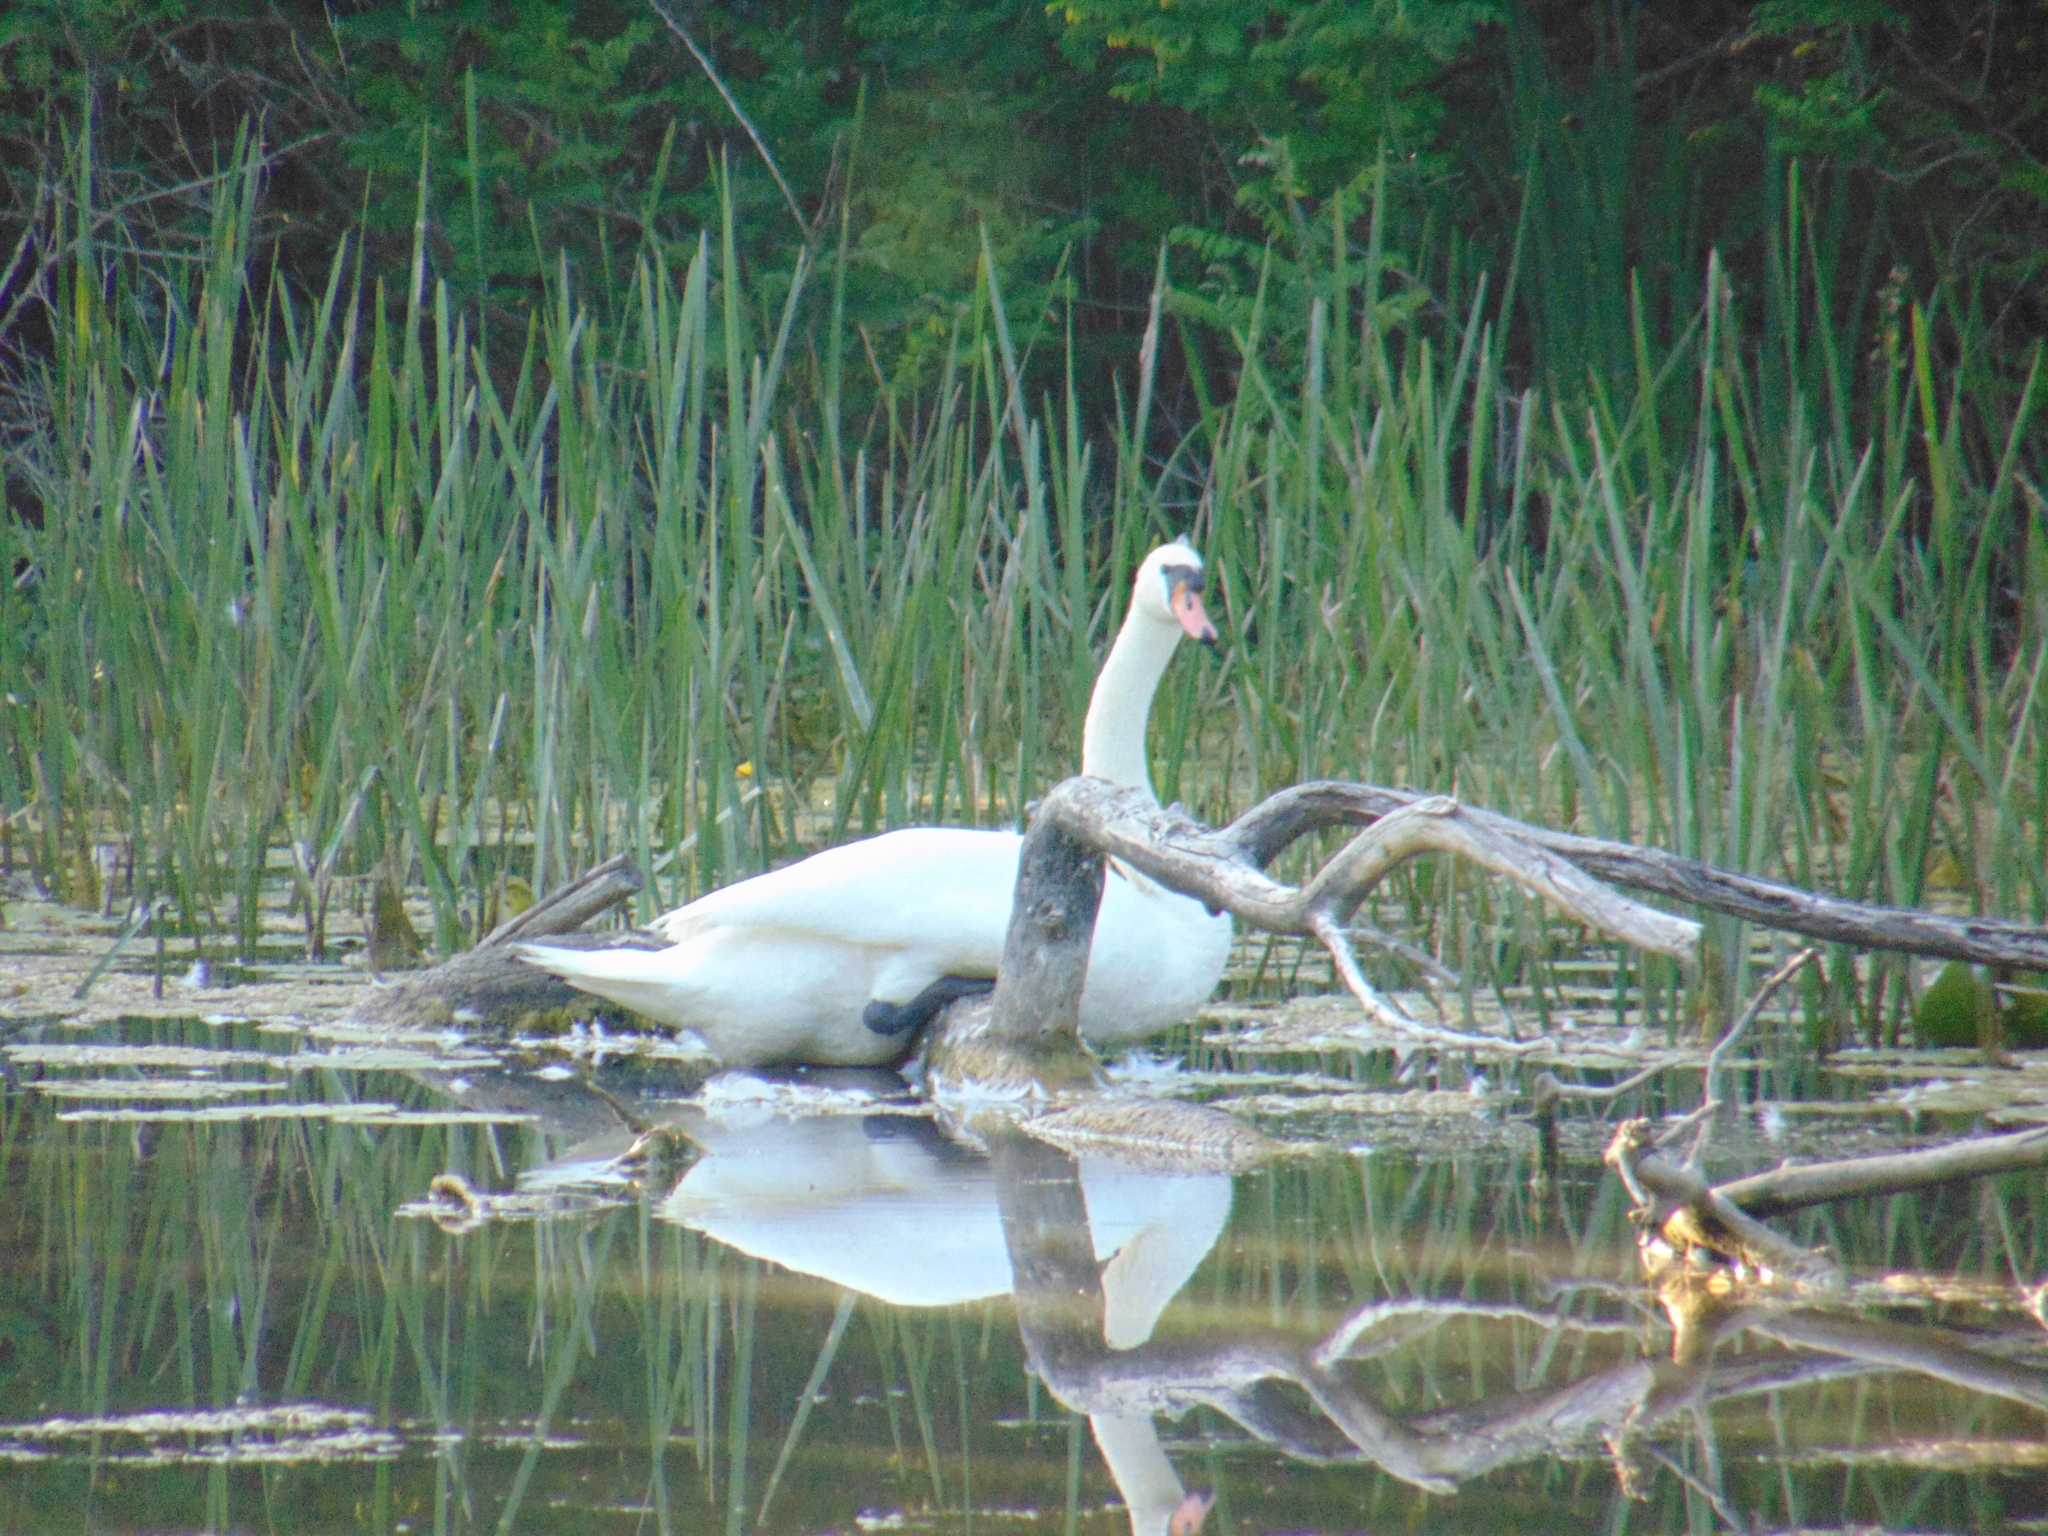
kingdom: Animalia
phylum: Chordata
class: Aves
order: Anseriformes
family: Anatidae
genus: Cygnus
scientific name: Cygnus olor
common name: Mute swan
